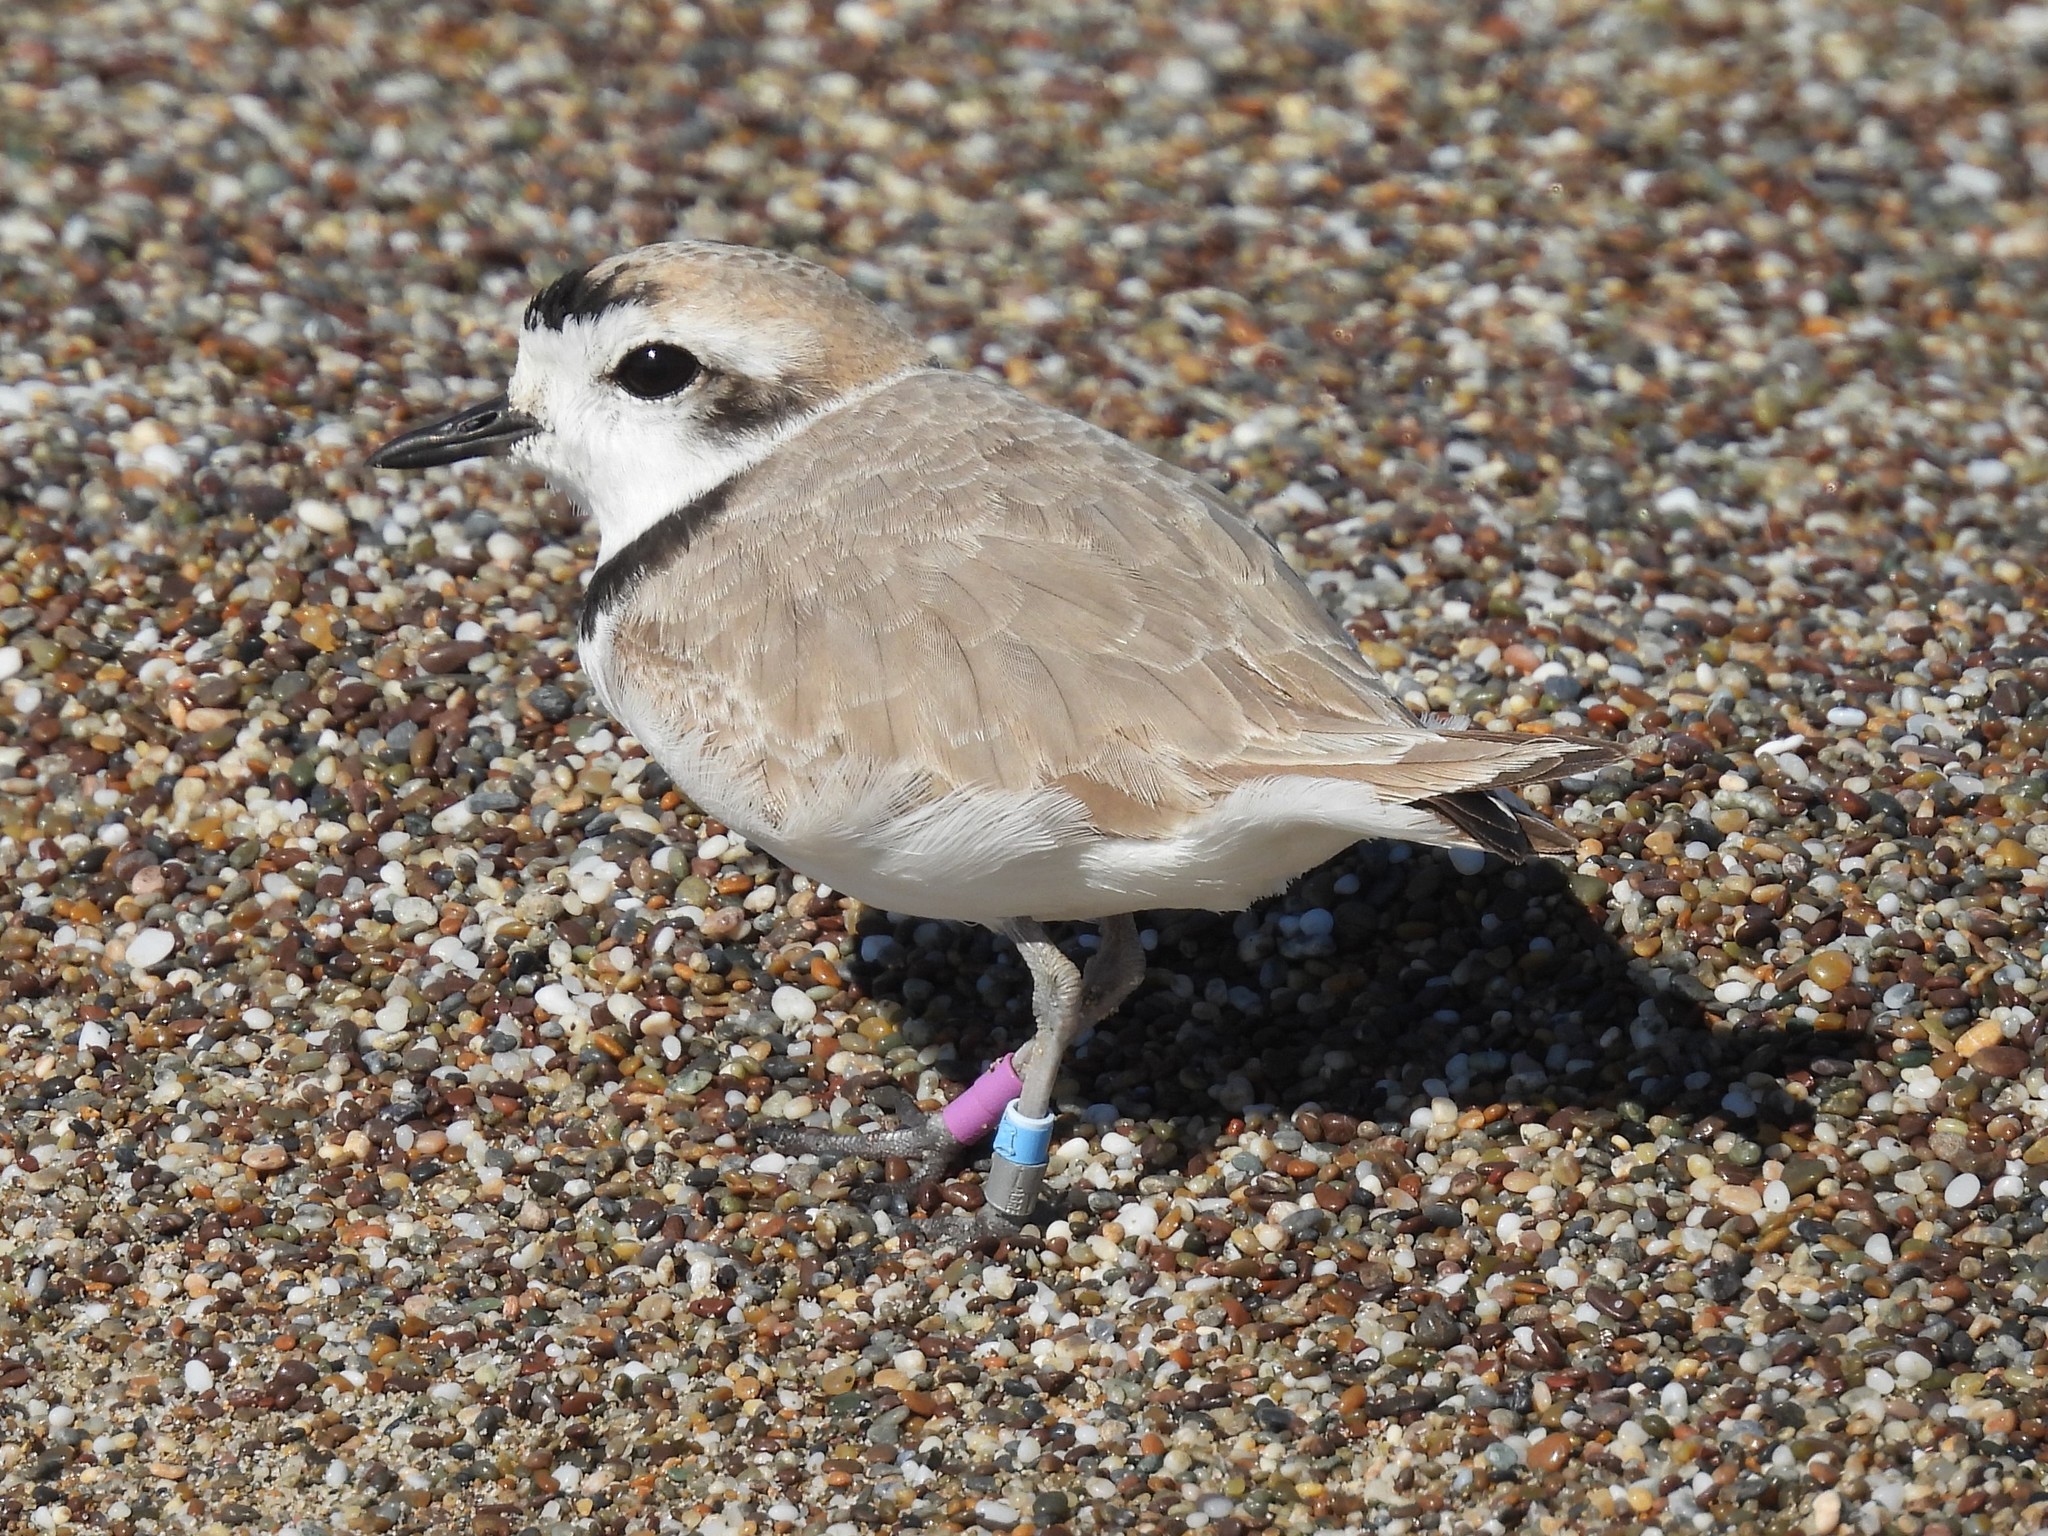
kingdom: Animalia
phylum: Chordata
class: Aves
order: Charadriiformes
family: Charadriidae
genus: Anarhynchus
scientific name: Anarhynchus
